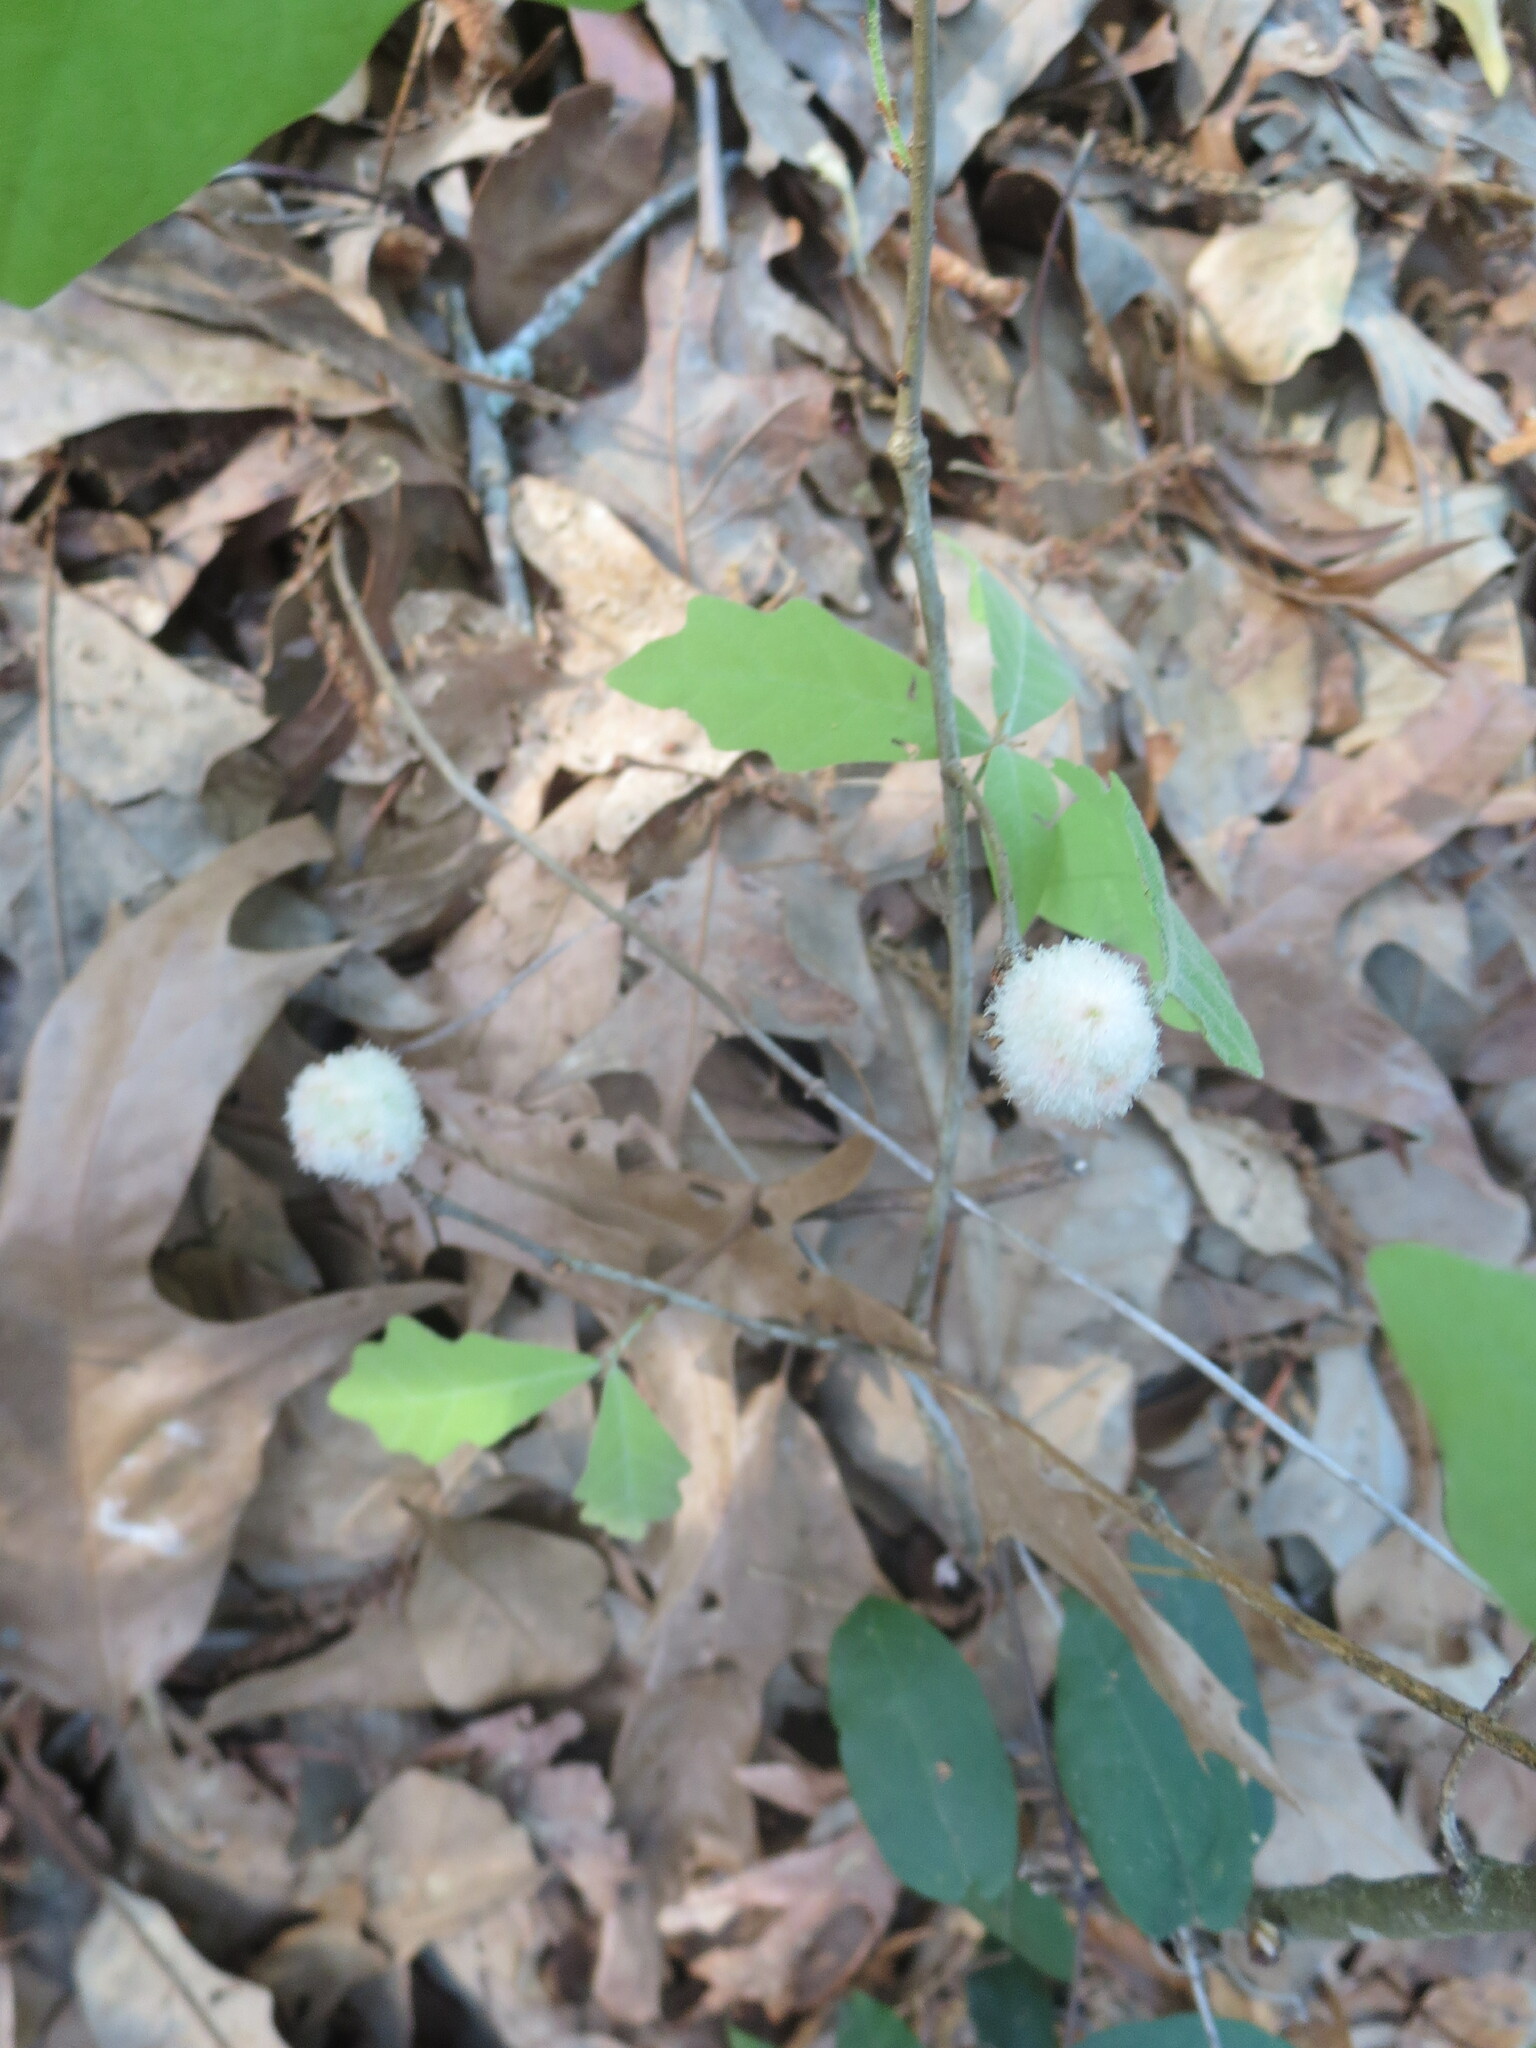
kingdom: Animalia
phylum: Arthropoda
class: Insecta
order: Hymenoptera
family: Cynipidae
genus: Callirhytis
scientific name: Callirhytis
